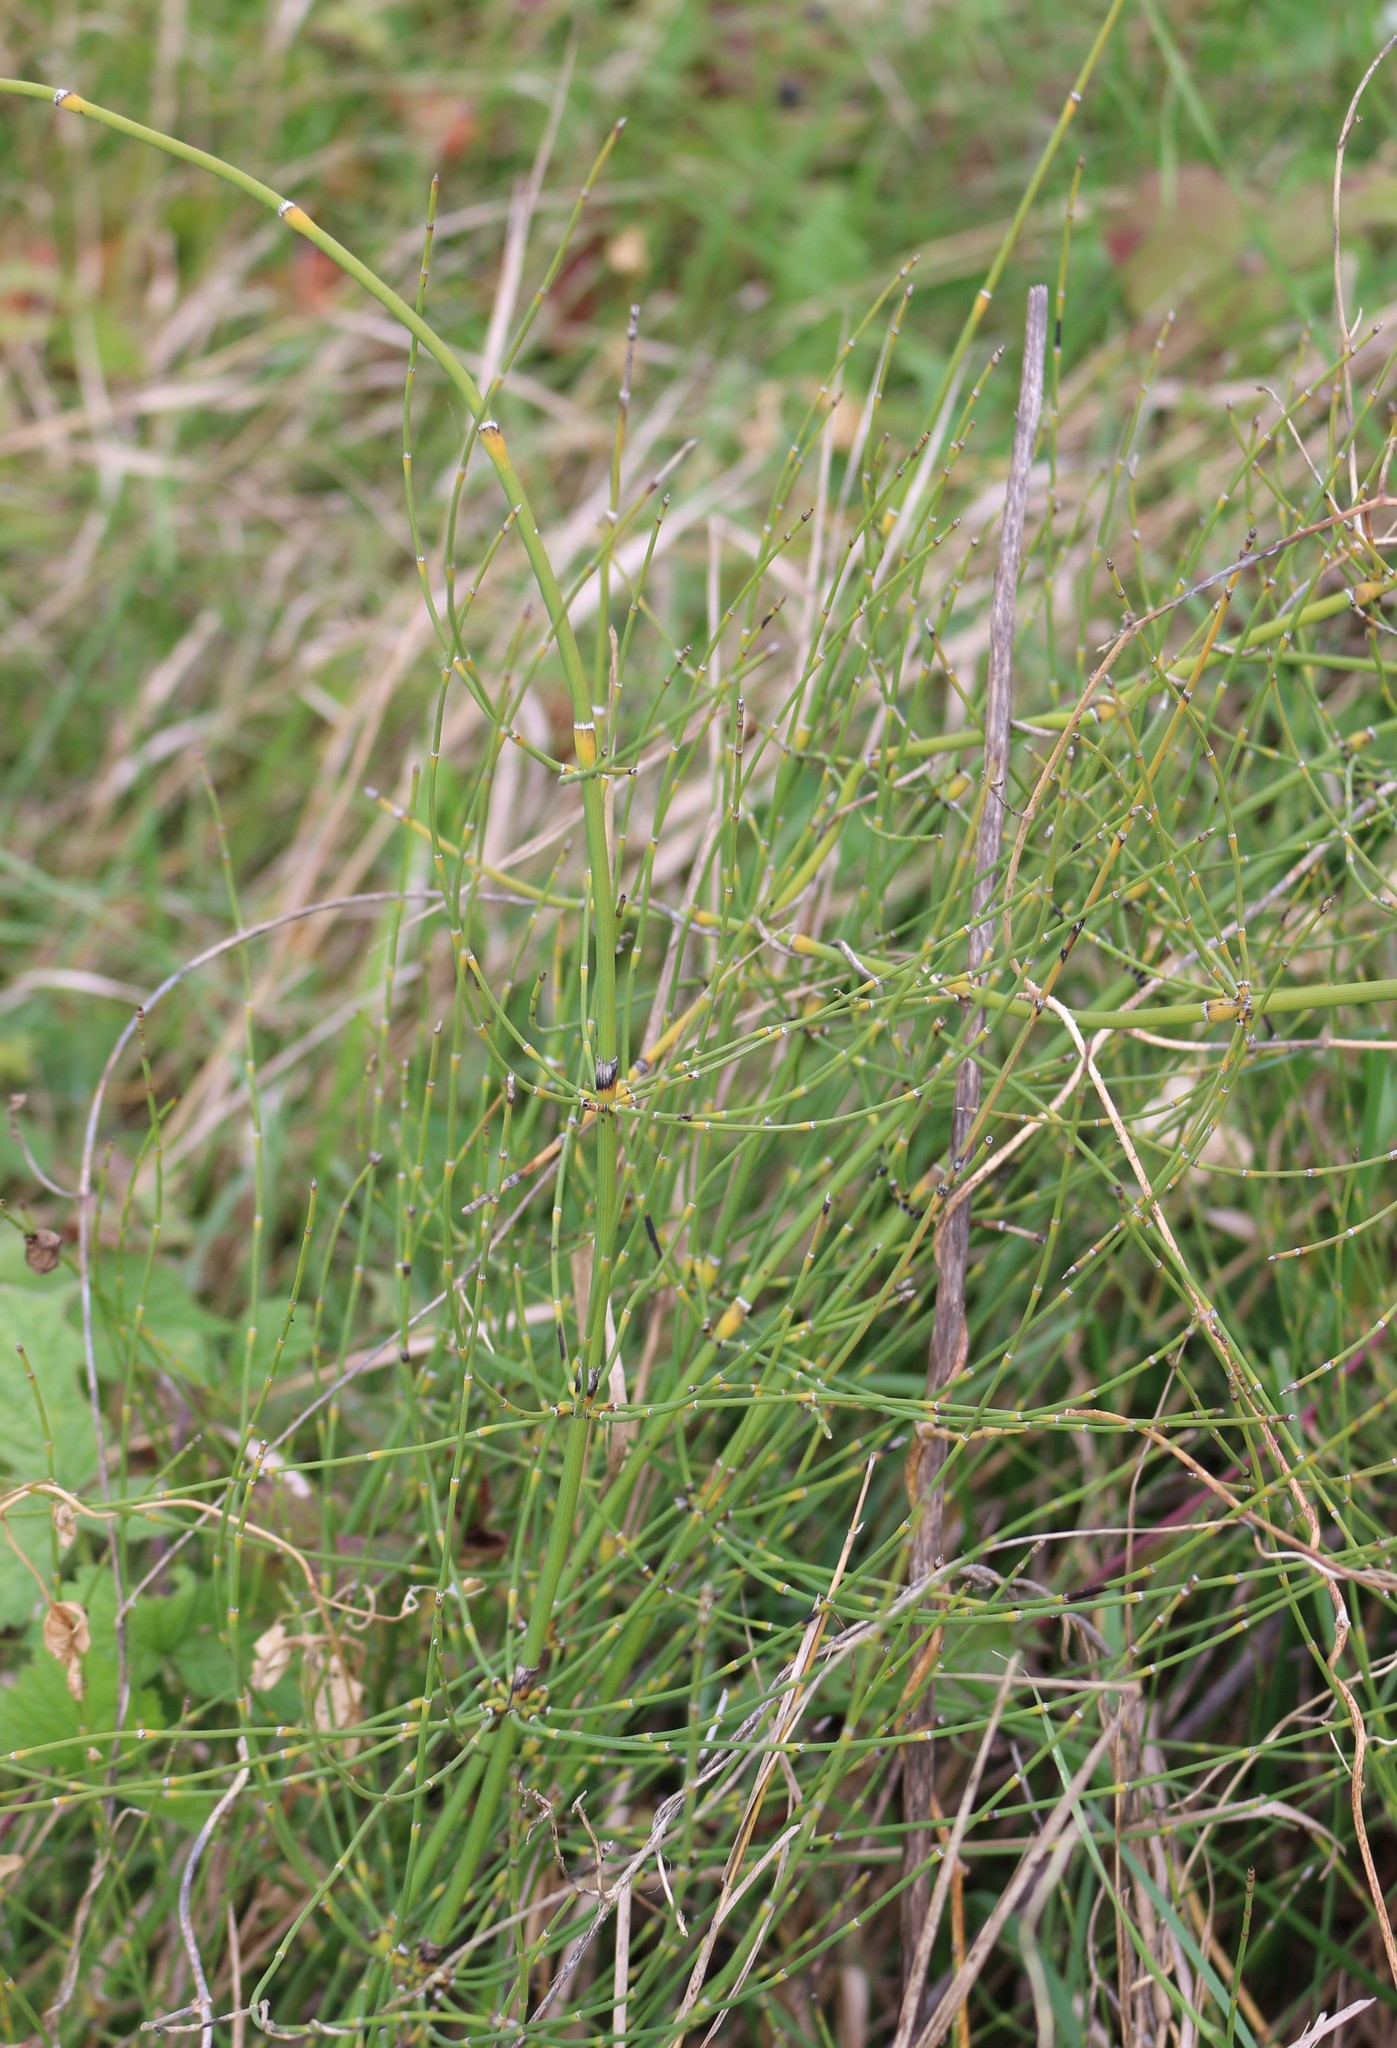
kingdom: Plantae
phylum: Tracheophyta
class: Polypodiopsida
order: Equisetales
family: Equisetaceae
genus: Equisetum
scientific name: Equisetum ramosissimum
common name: Branched horsetail
